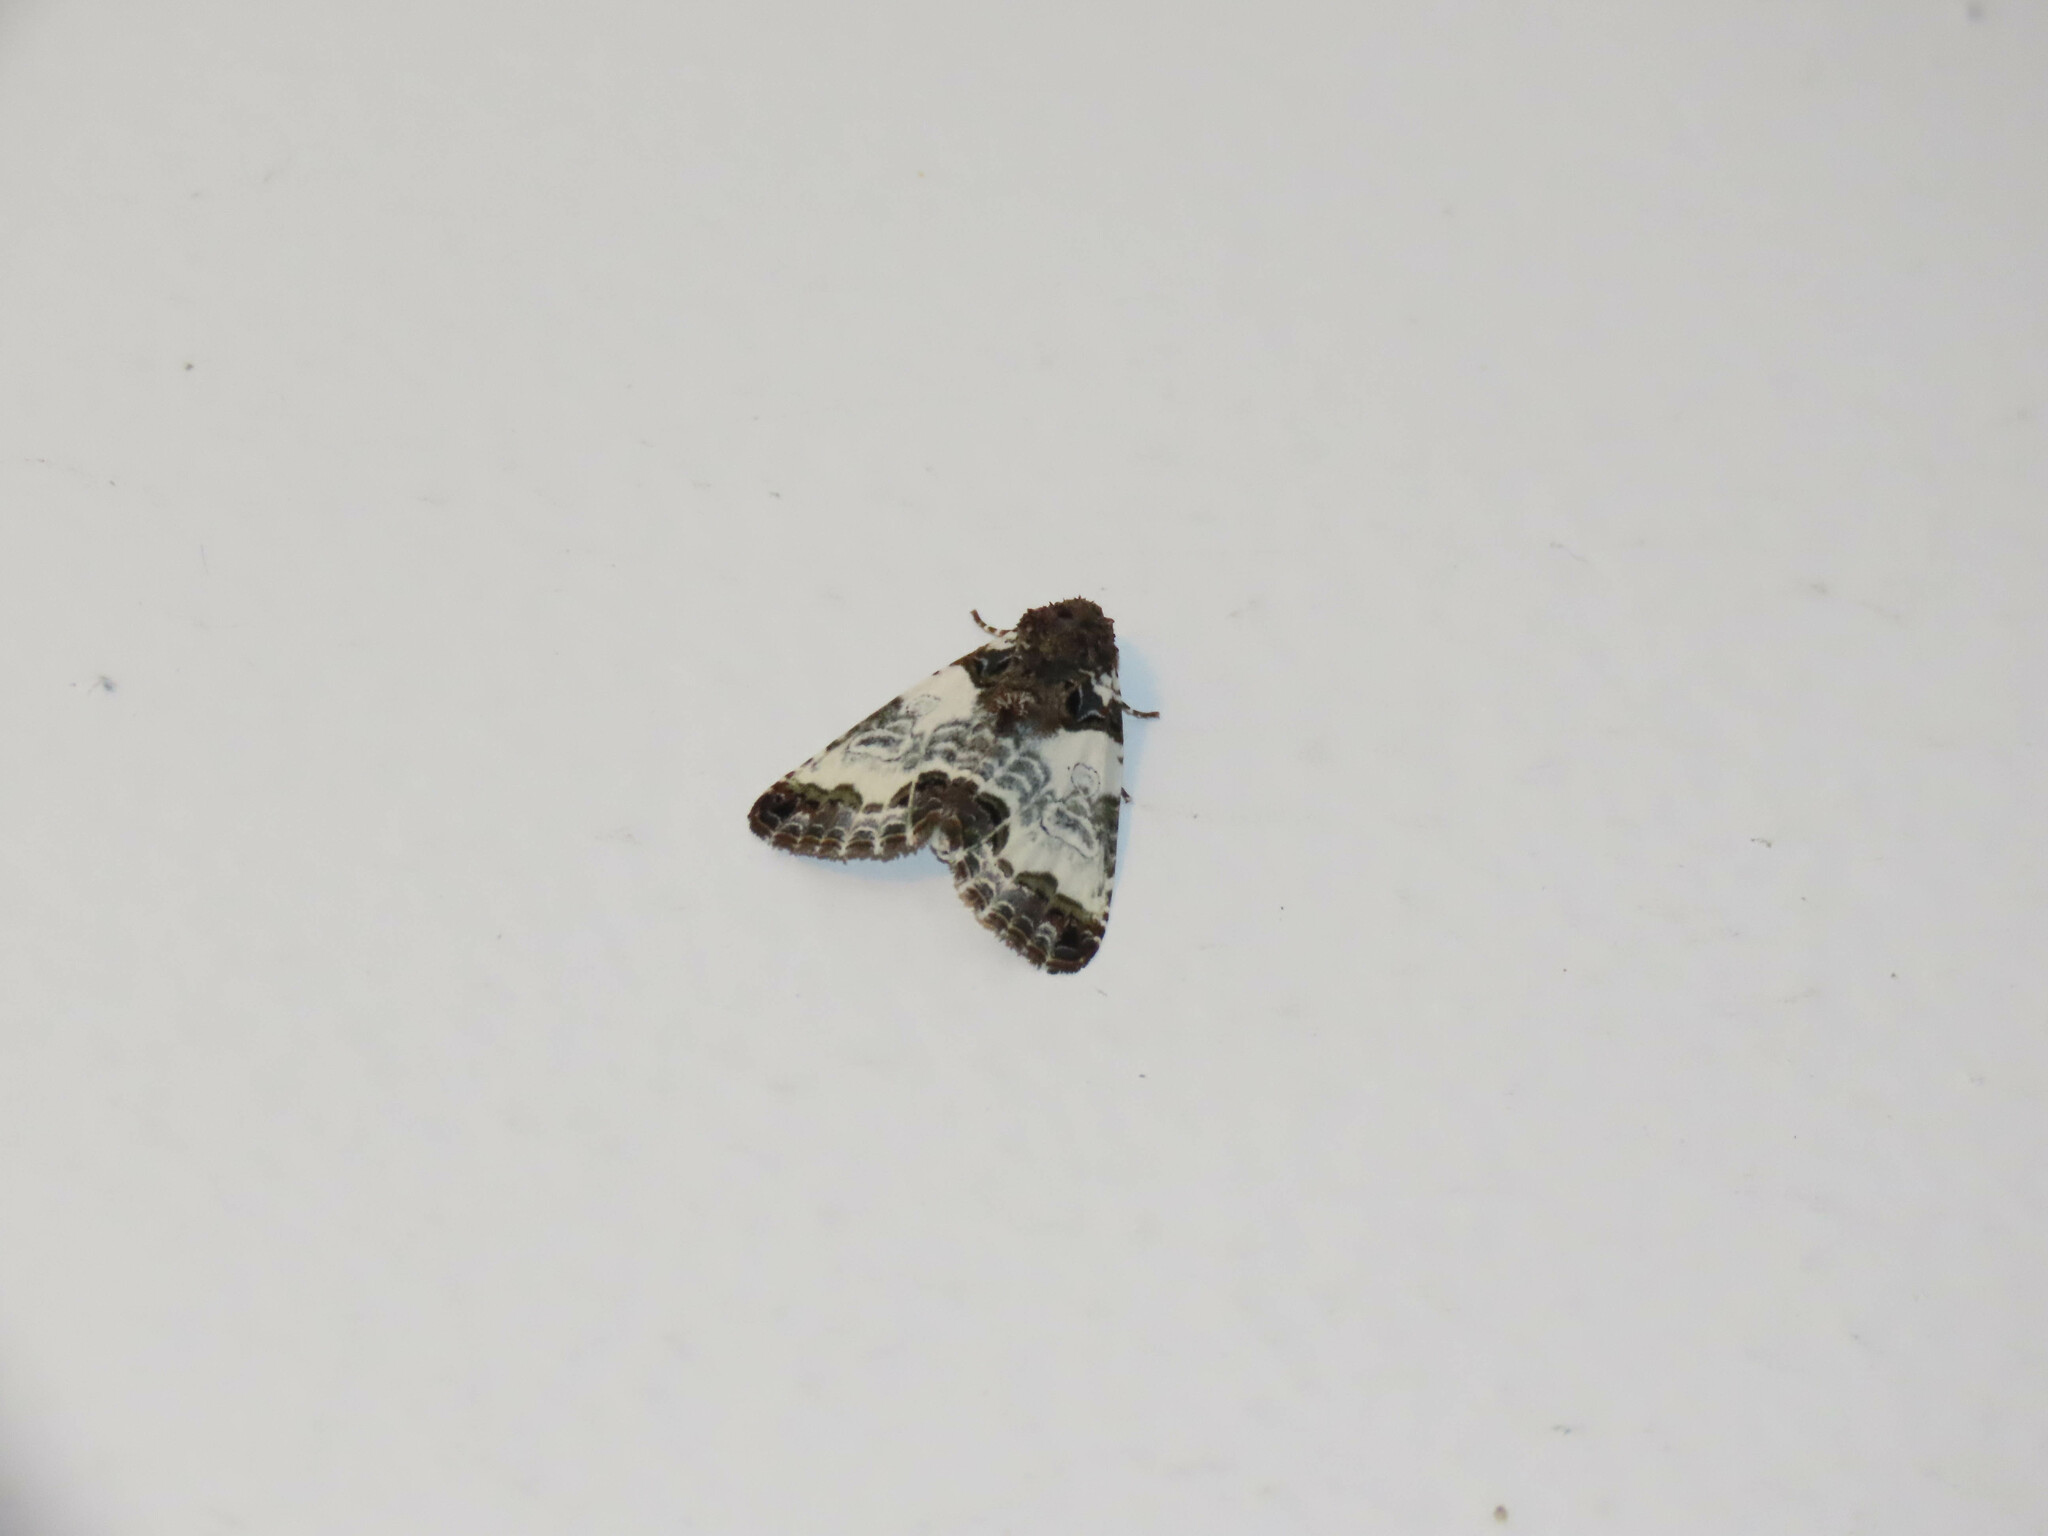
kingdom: Animalia
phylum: Arthropoda
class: Insecta
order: Lepidoptera
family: Noctuidae
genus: Cerma
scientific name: Cerma cerintha
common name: Tufted bird-dropping moth
